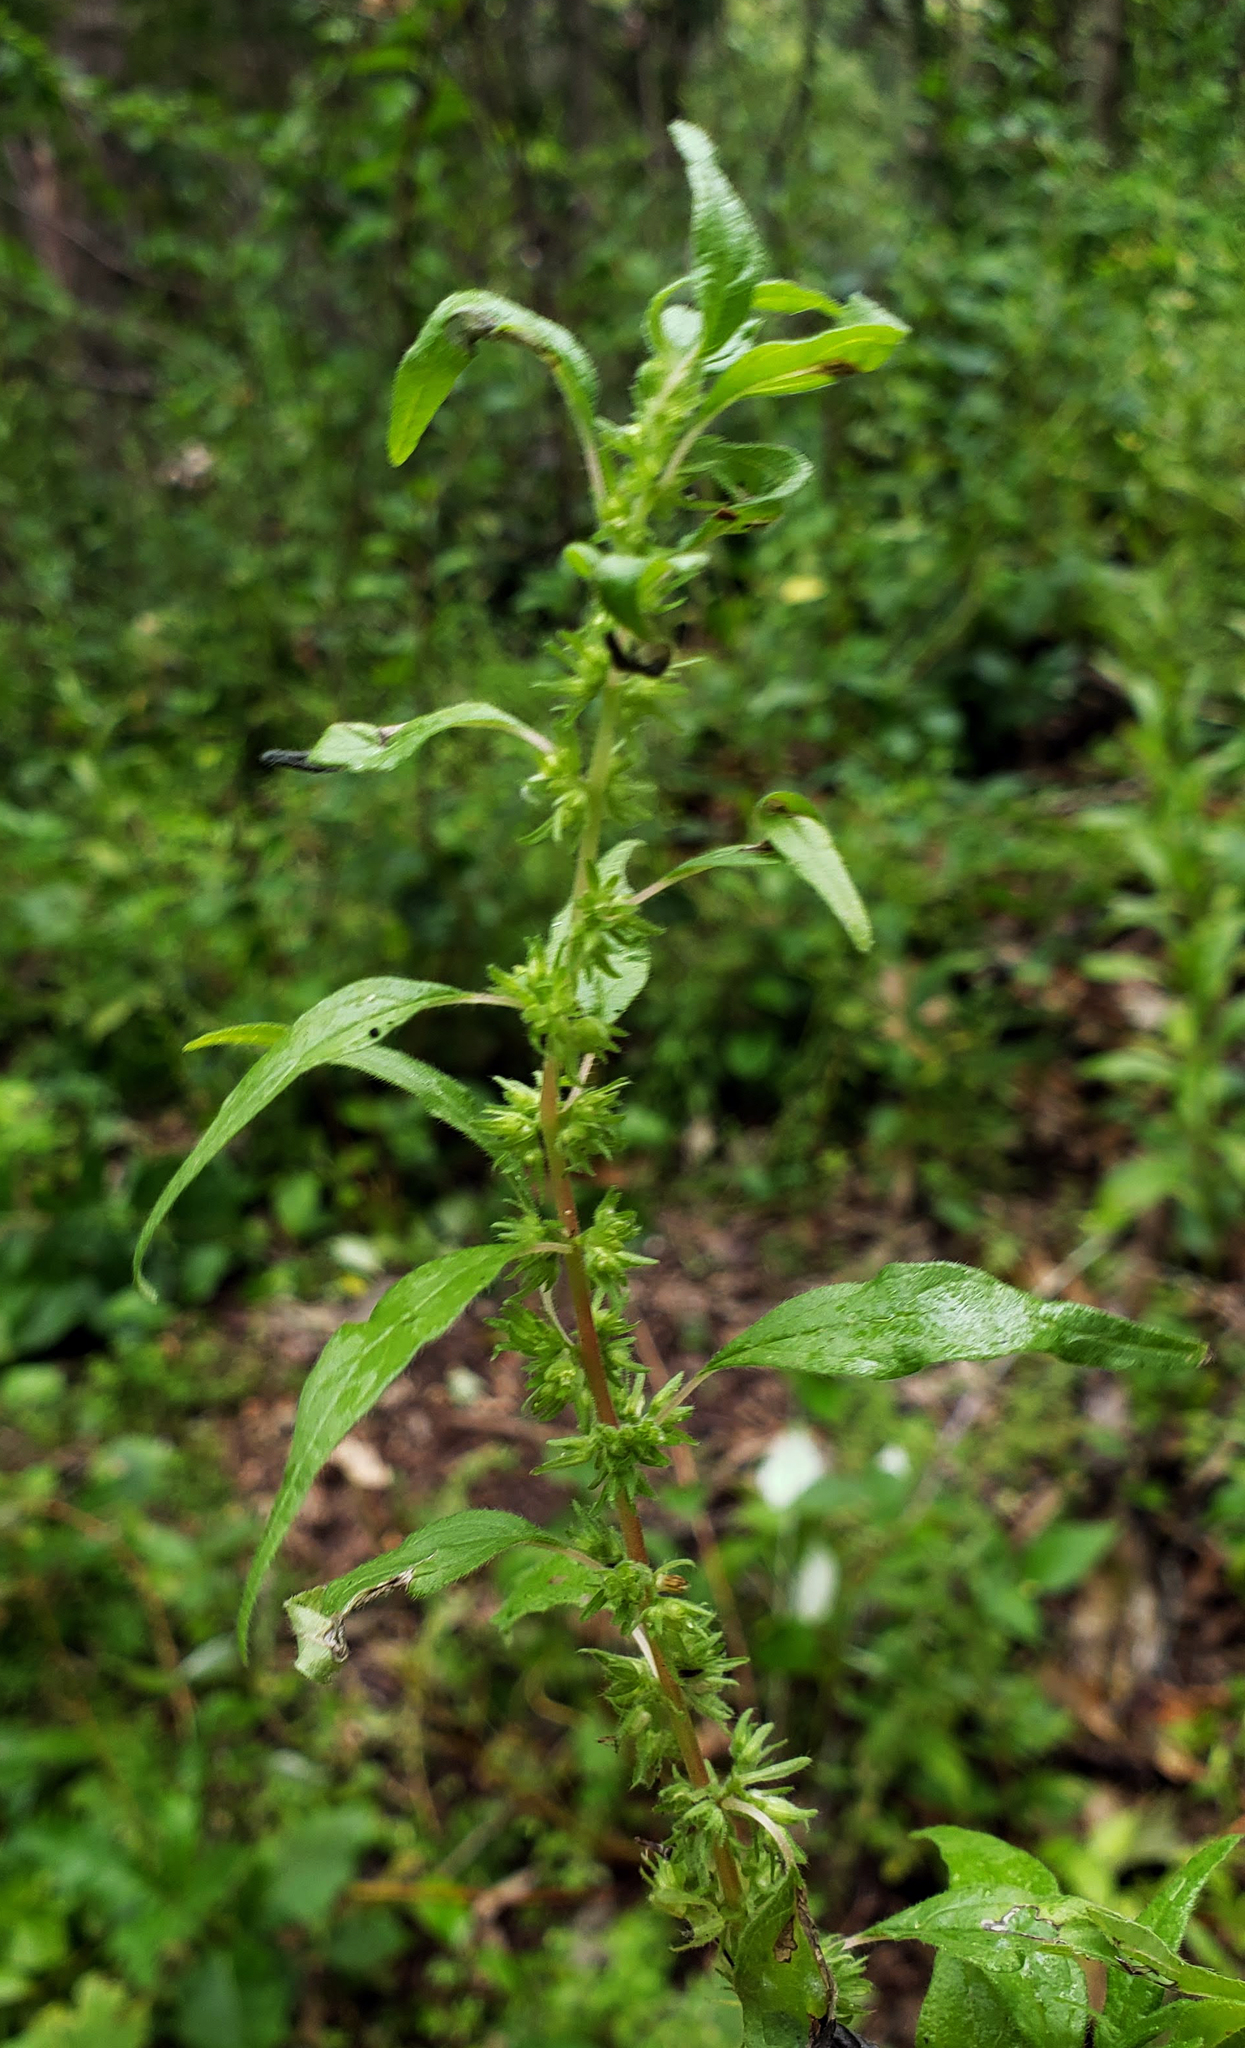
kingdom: Plantae
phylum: Tracheophyta
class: Magnoliopsida
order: Rosales
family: Urticaceae
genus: Parietaria
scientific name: Parietaria pensylvanica
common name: Pennsylvania pellitory
